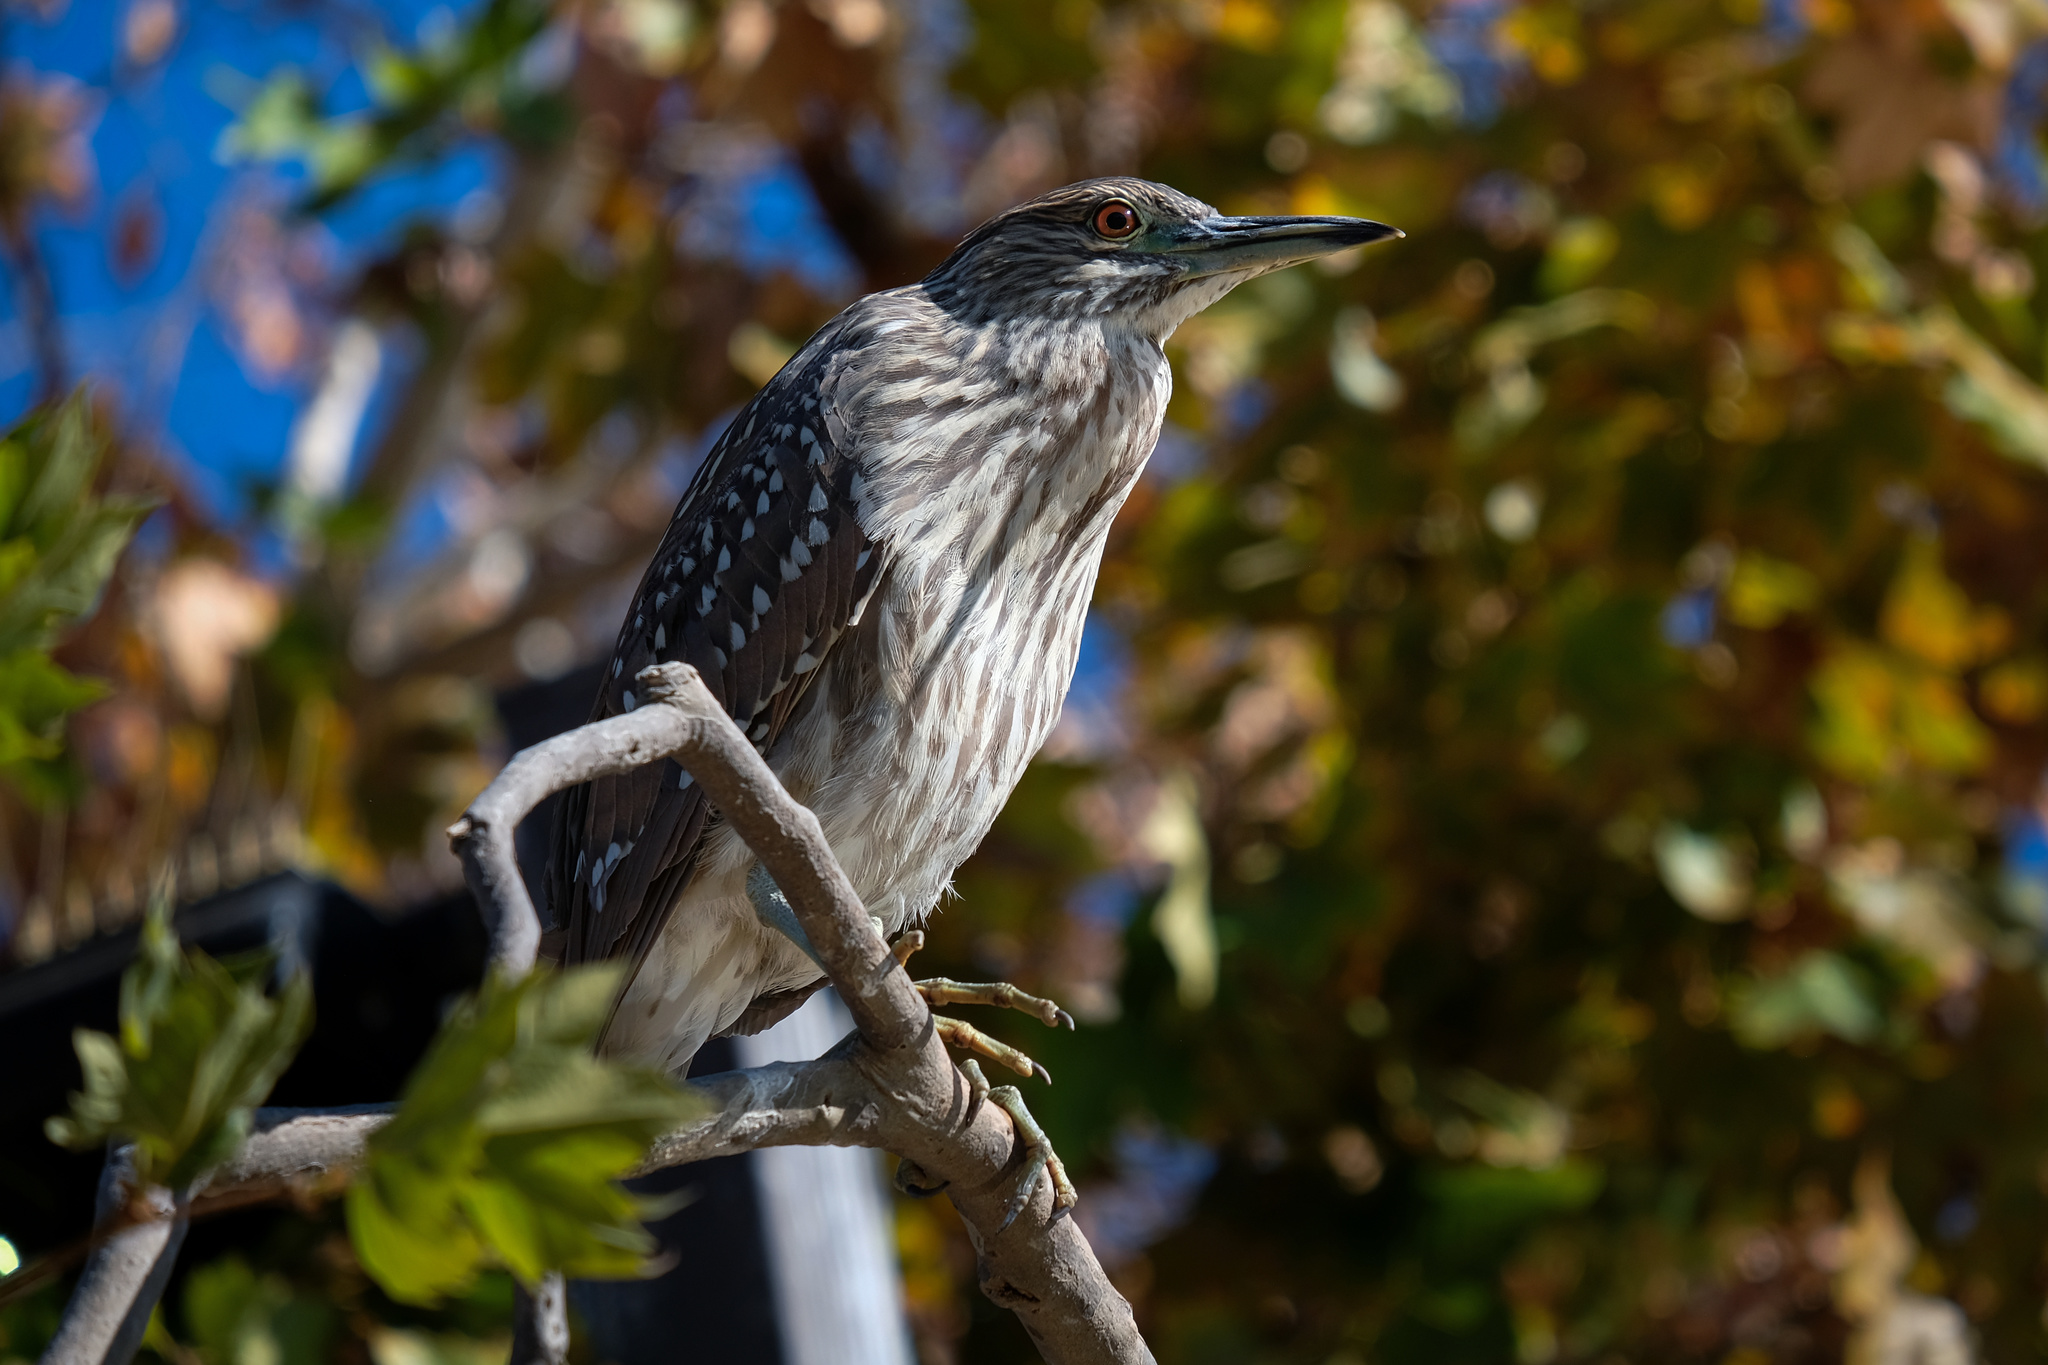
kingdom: Animalia
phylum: Chordata
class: Aves
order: Pelecaniformes
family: Ardeidae
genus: Nycticorax
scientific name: Nycticorax nycticorax
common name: Black-crowned night heron
